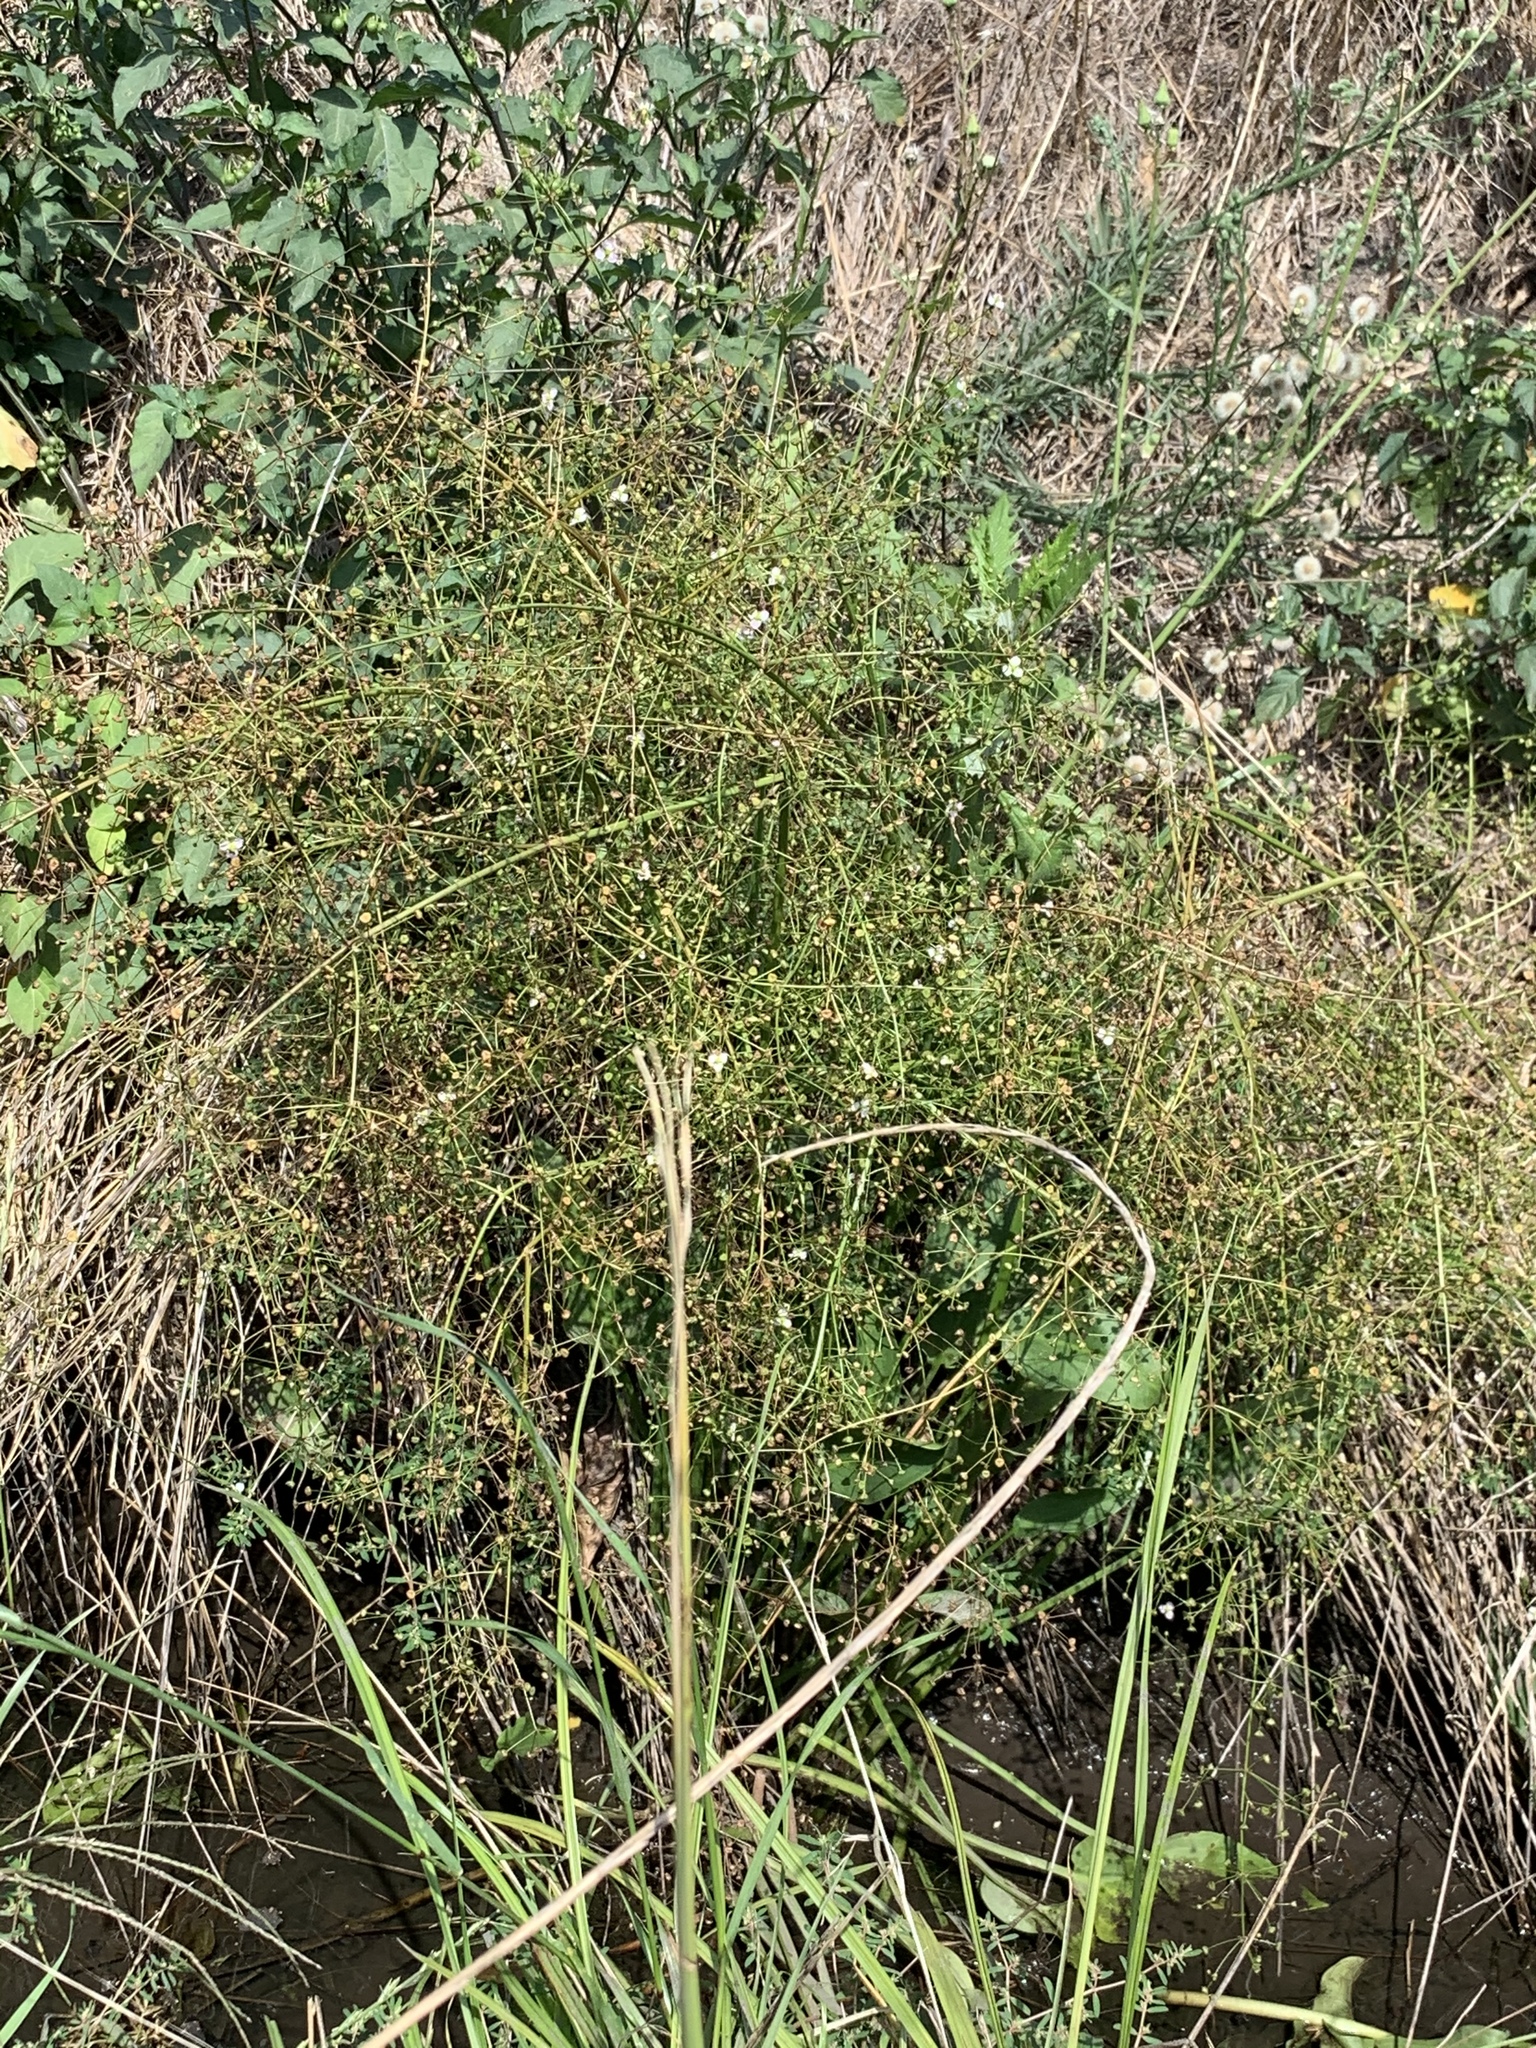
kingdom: Plantae
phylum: Tracheophyta
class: Liliopsida
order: Alismatales
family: Alismataceae
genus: Alisma
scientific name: Alisma plantago-aquatica
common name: Water-plantain
